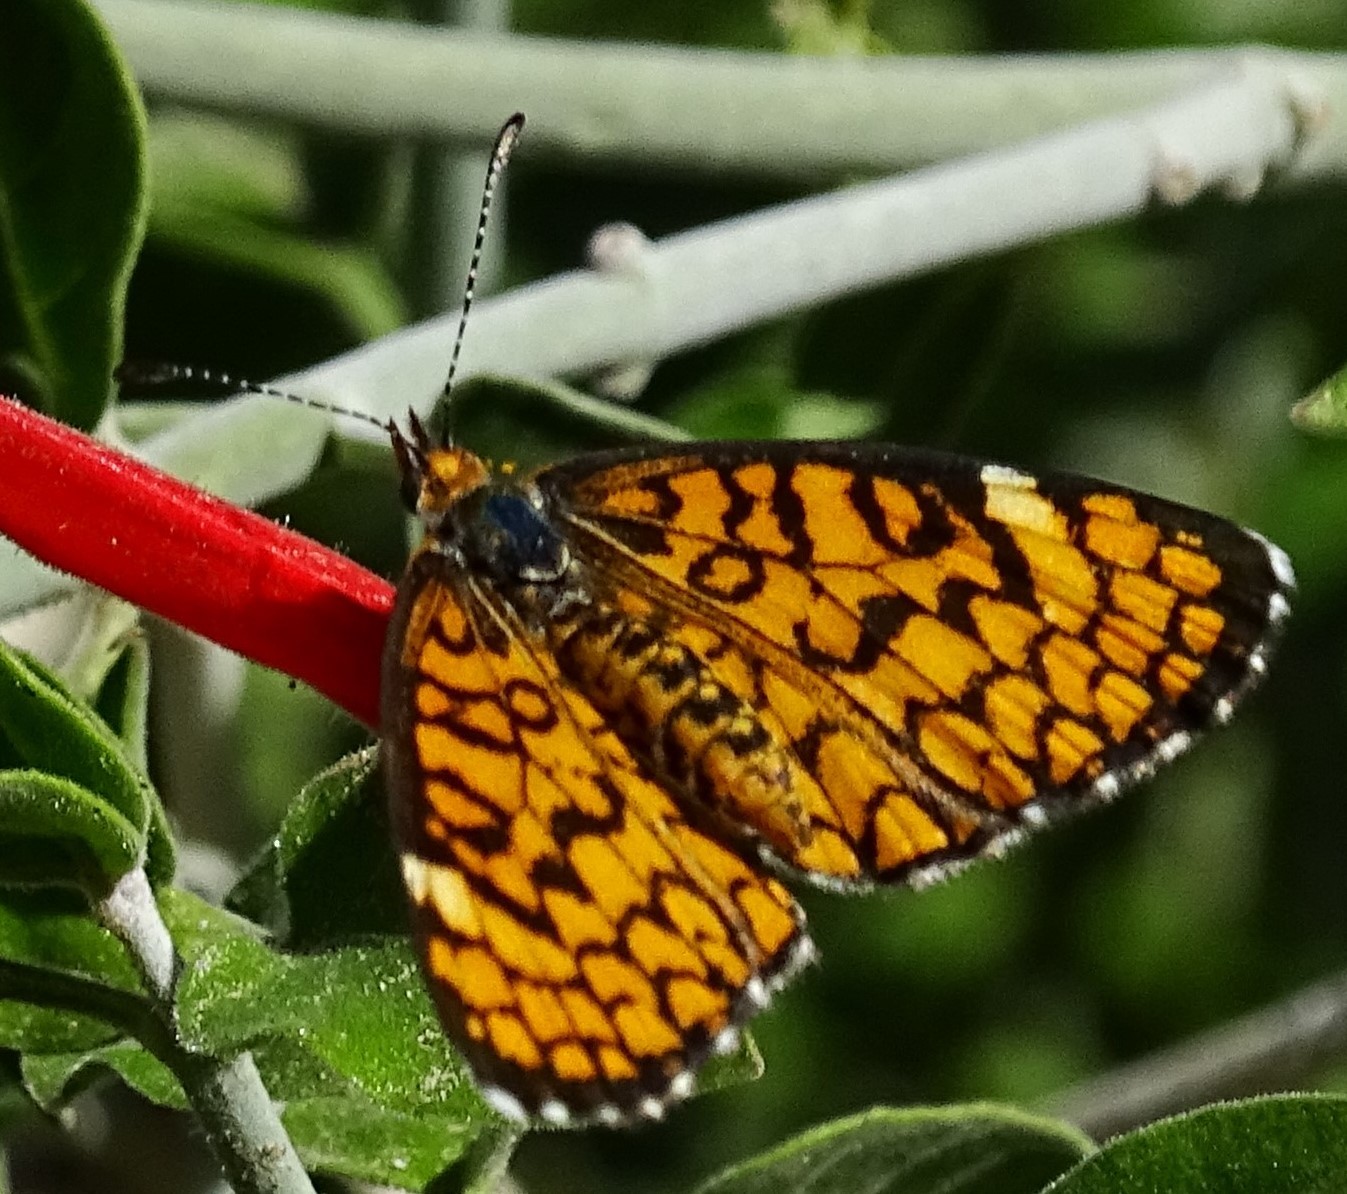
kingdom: Animalia
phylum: Arthropoda
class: Insecta
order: Lepidoptera
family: Nymphalidae
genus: Dymasia
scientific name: Dymasia dymas
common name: Tiny checkerspot
